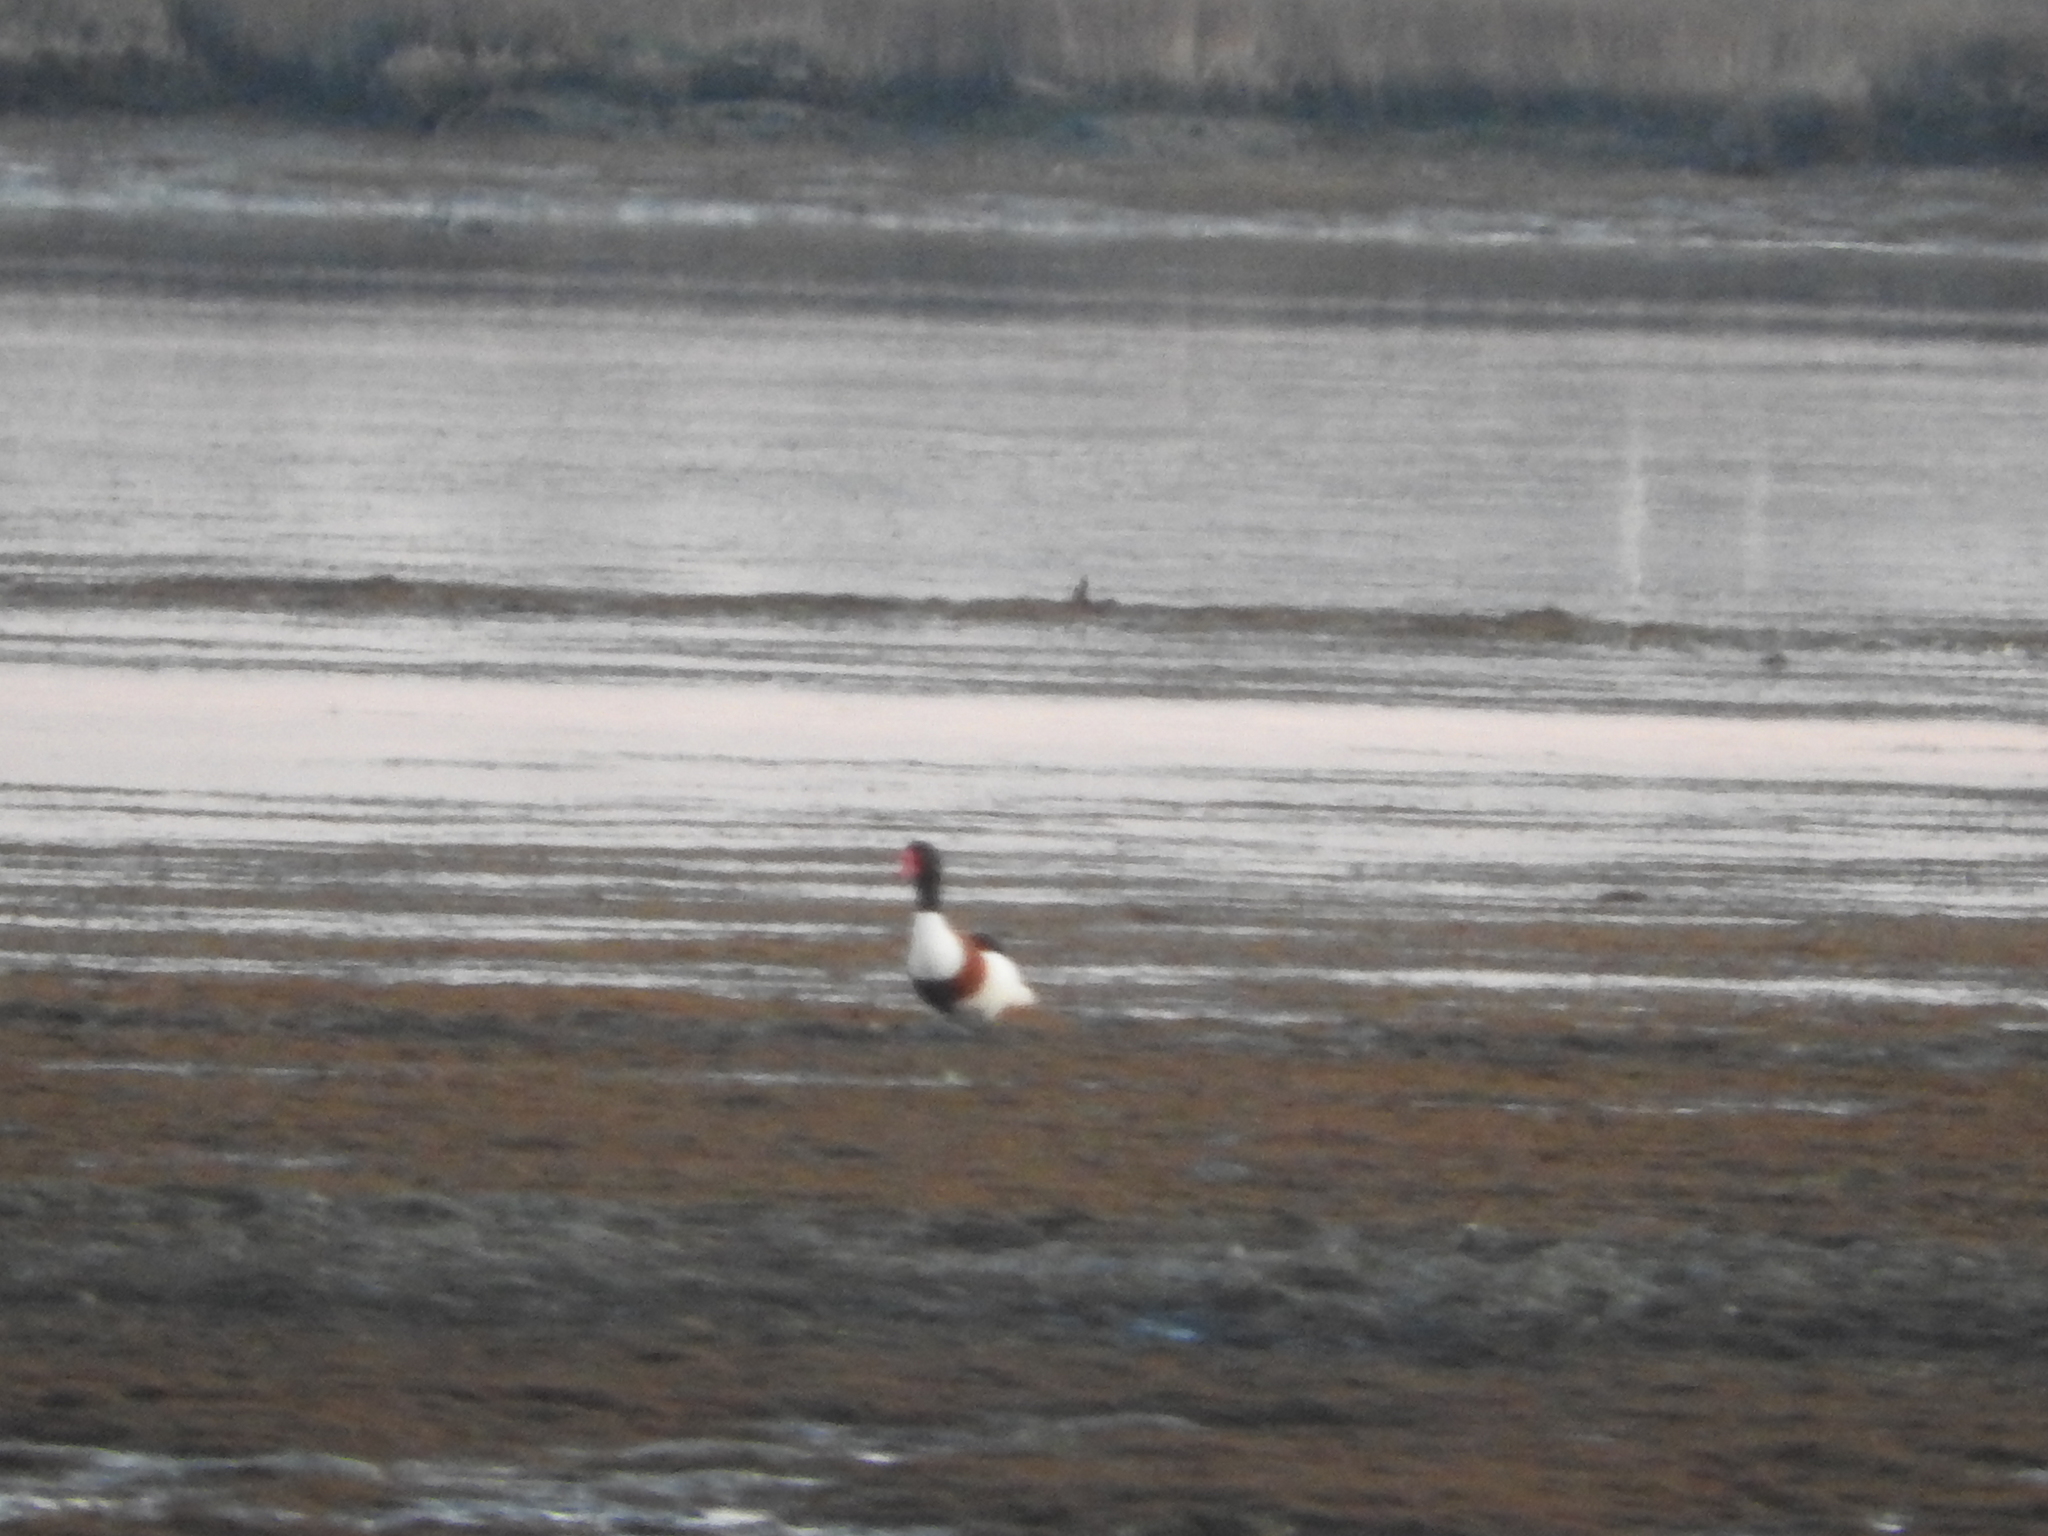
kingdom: Animalia
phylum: Chordata
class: Aves
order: Anseriformes
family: Anatidae
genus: Tadorna
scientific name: Tadorna tadorna
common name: Common shelduck
